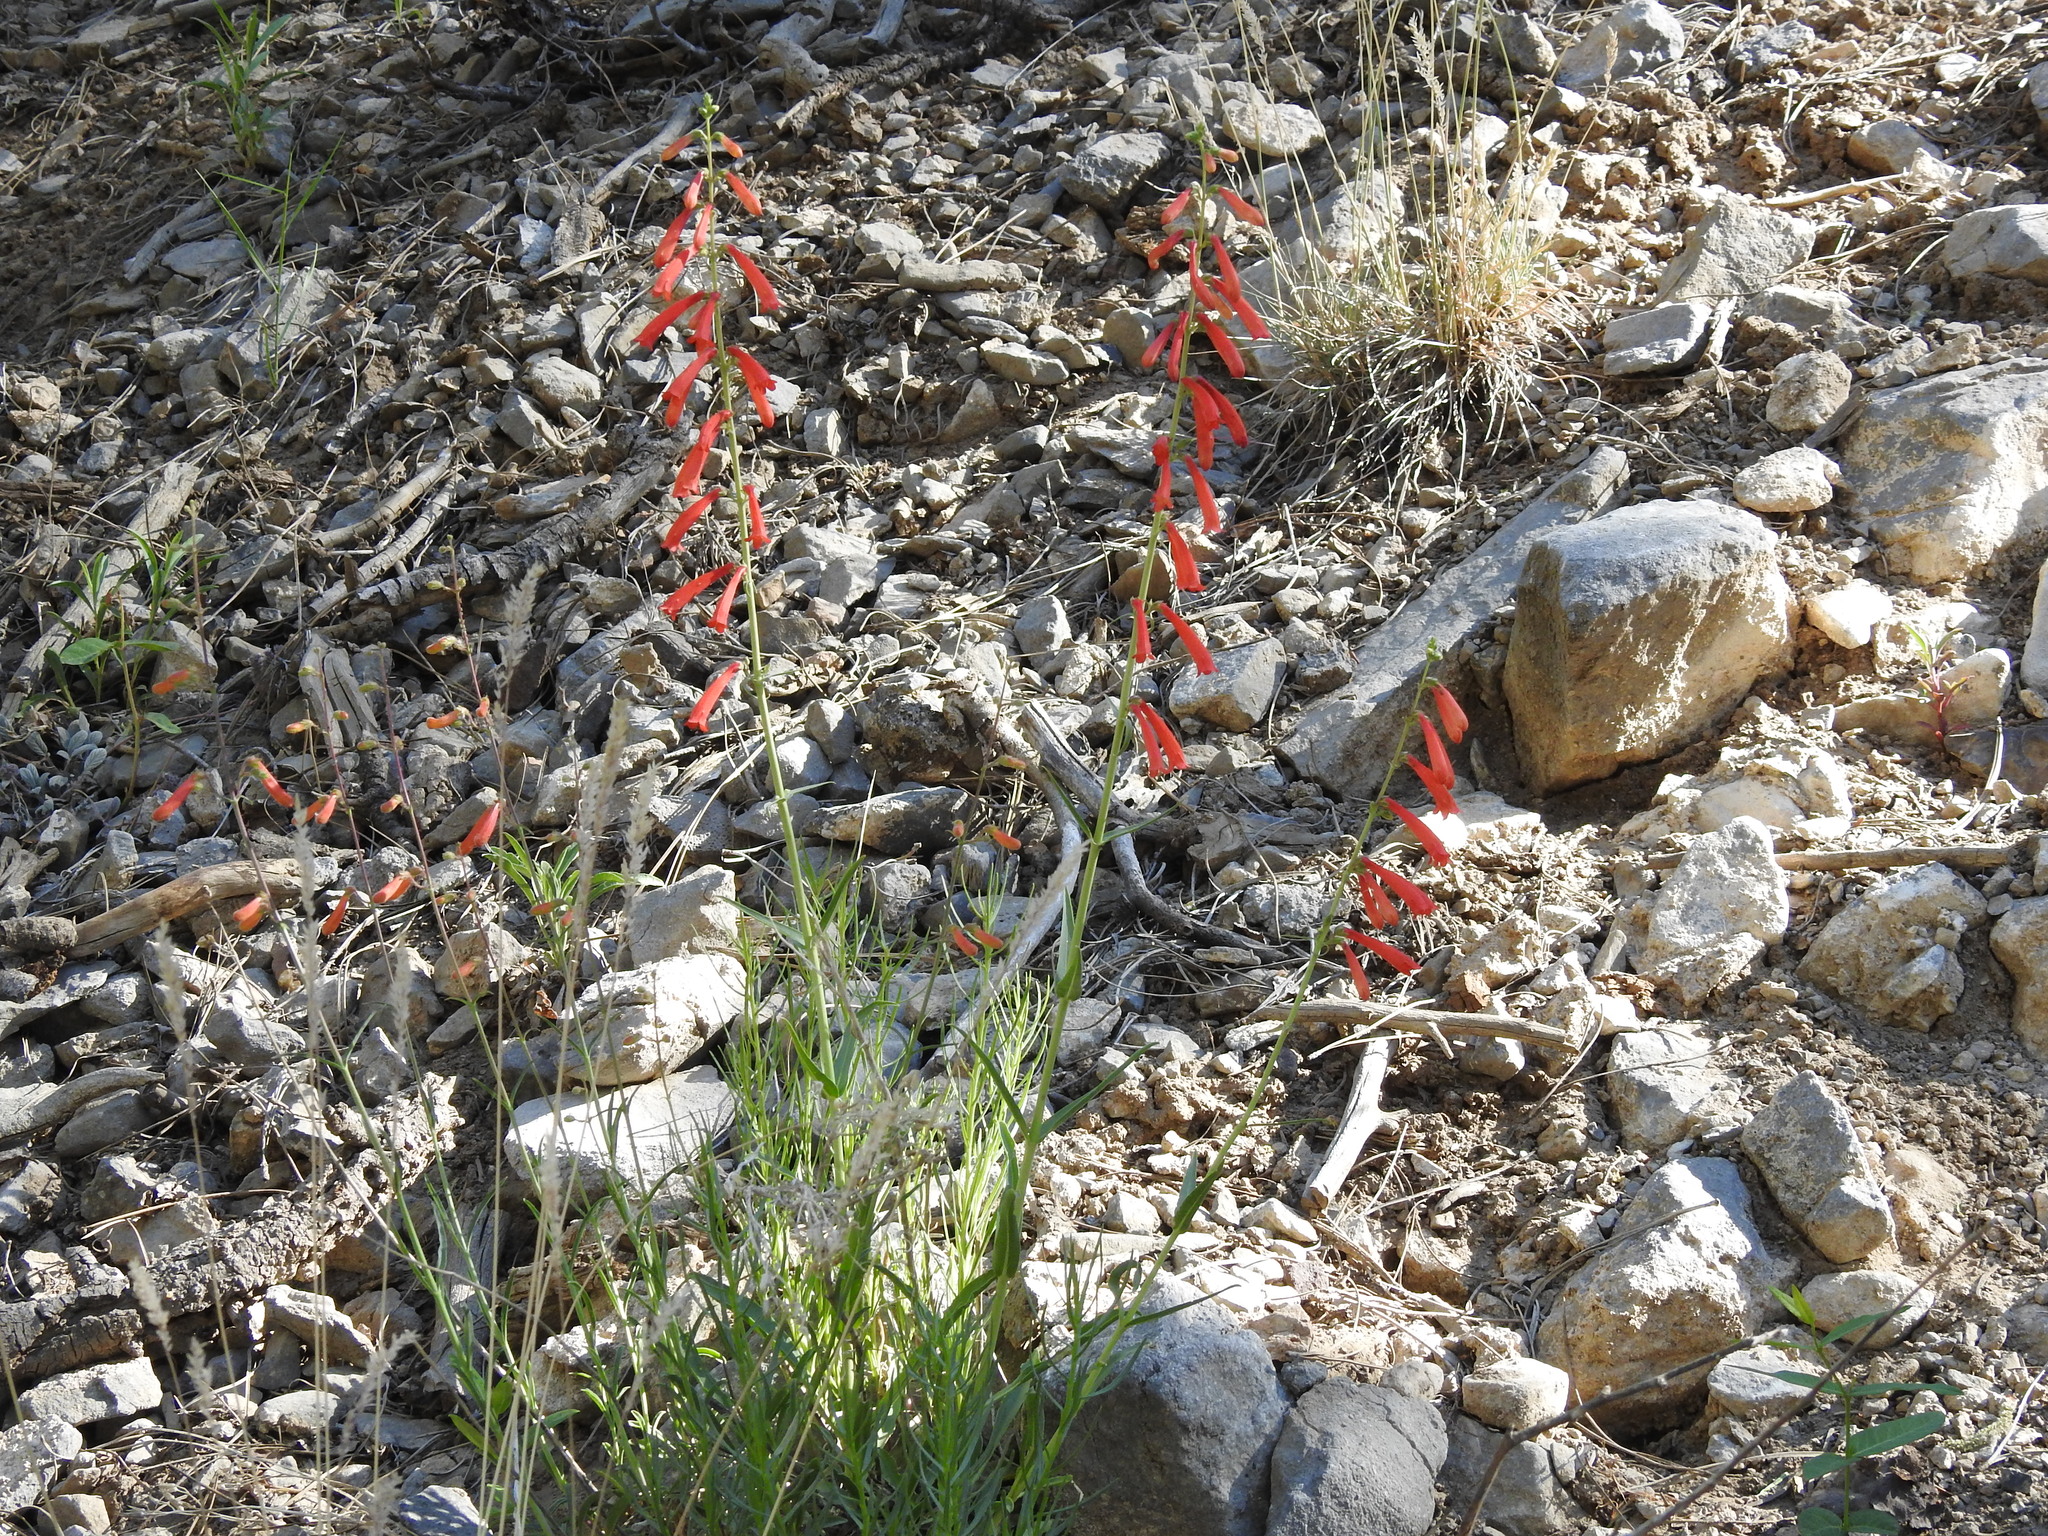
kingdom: Plantae
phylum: Tracheophyta
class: Magnoliopsida
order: Lamiales
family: Plantaginaceae
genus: Penstemon
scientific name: Penstemon eatonii
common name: Eaton's penstemon
